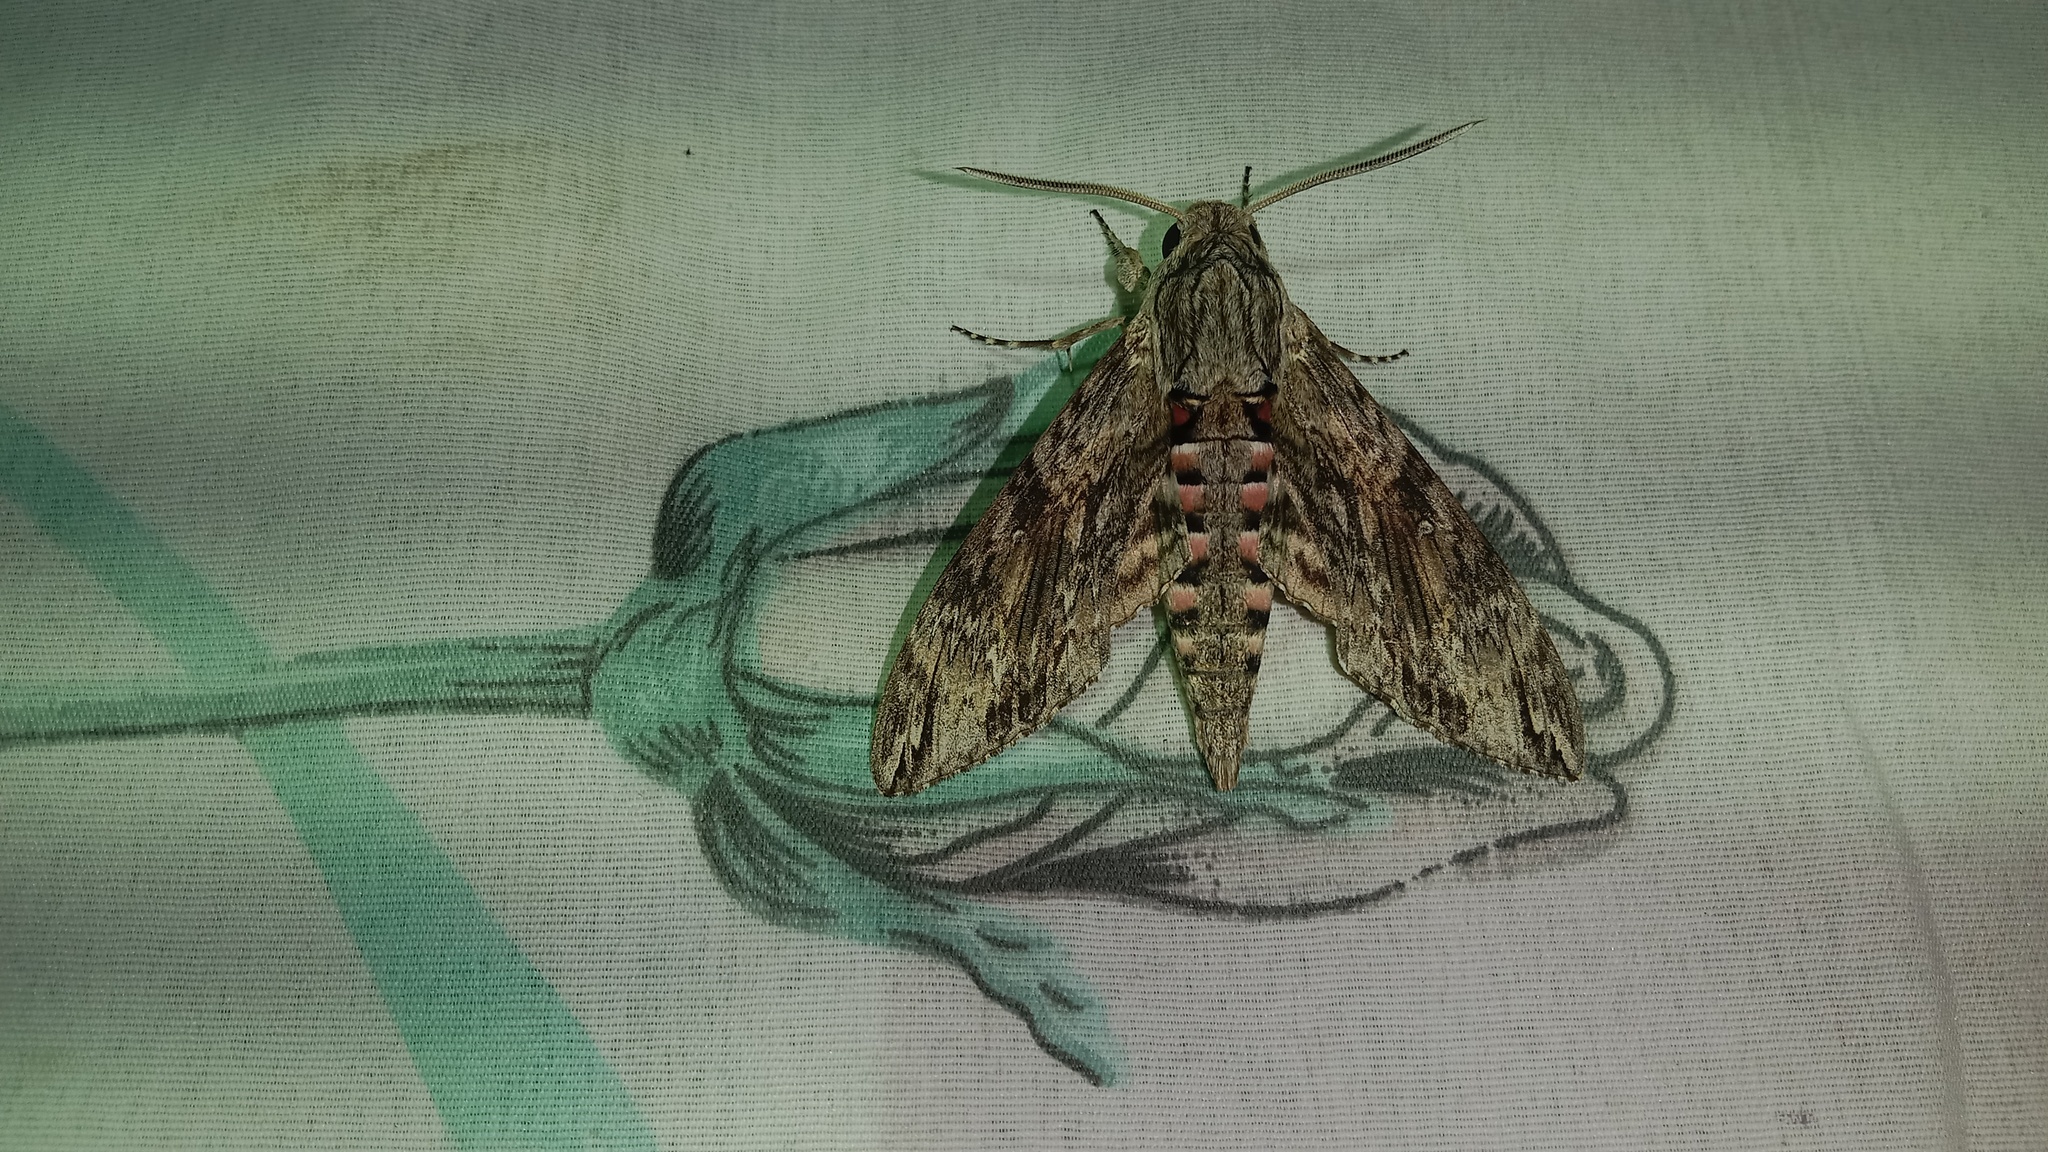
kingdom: Animalia
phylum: Arthropoda
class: Insecta
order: Lepidoptera
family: Sphingidae
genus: Agrius
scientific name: Agrius convolvuli
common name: Convolvulus hawkmoth
